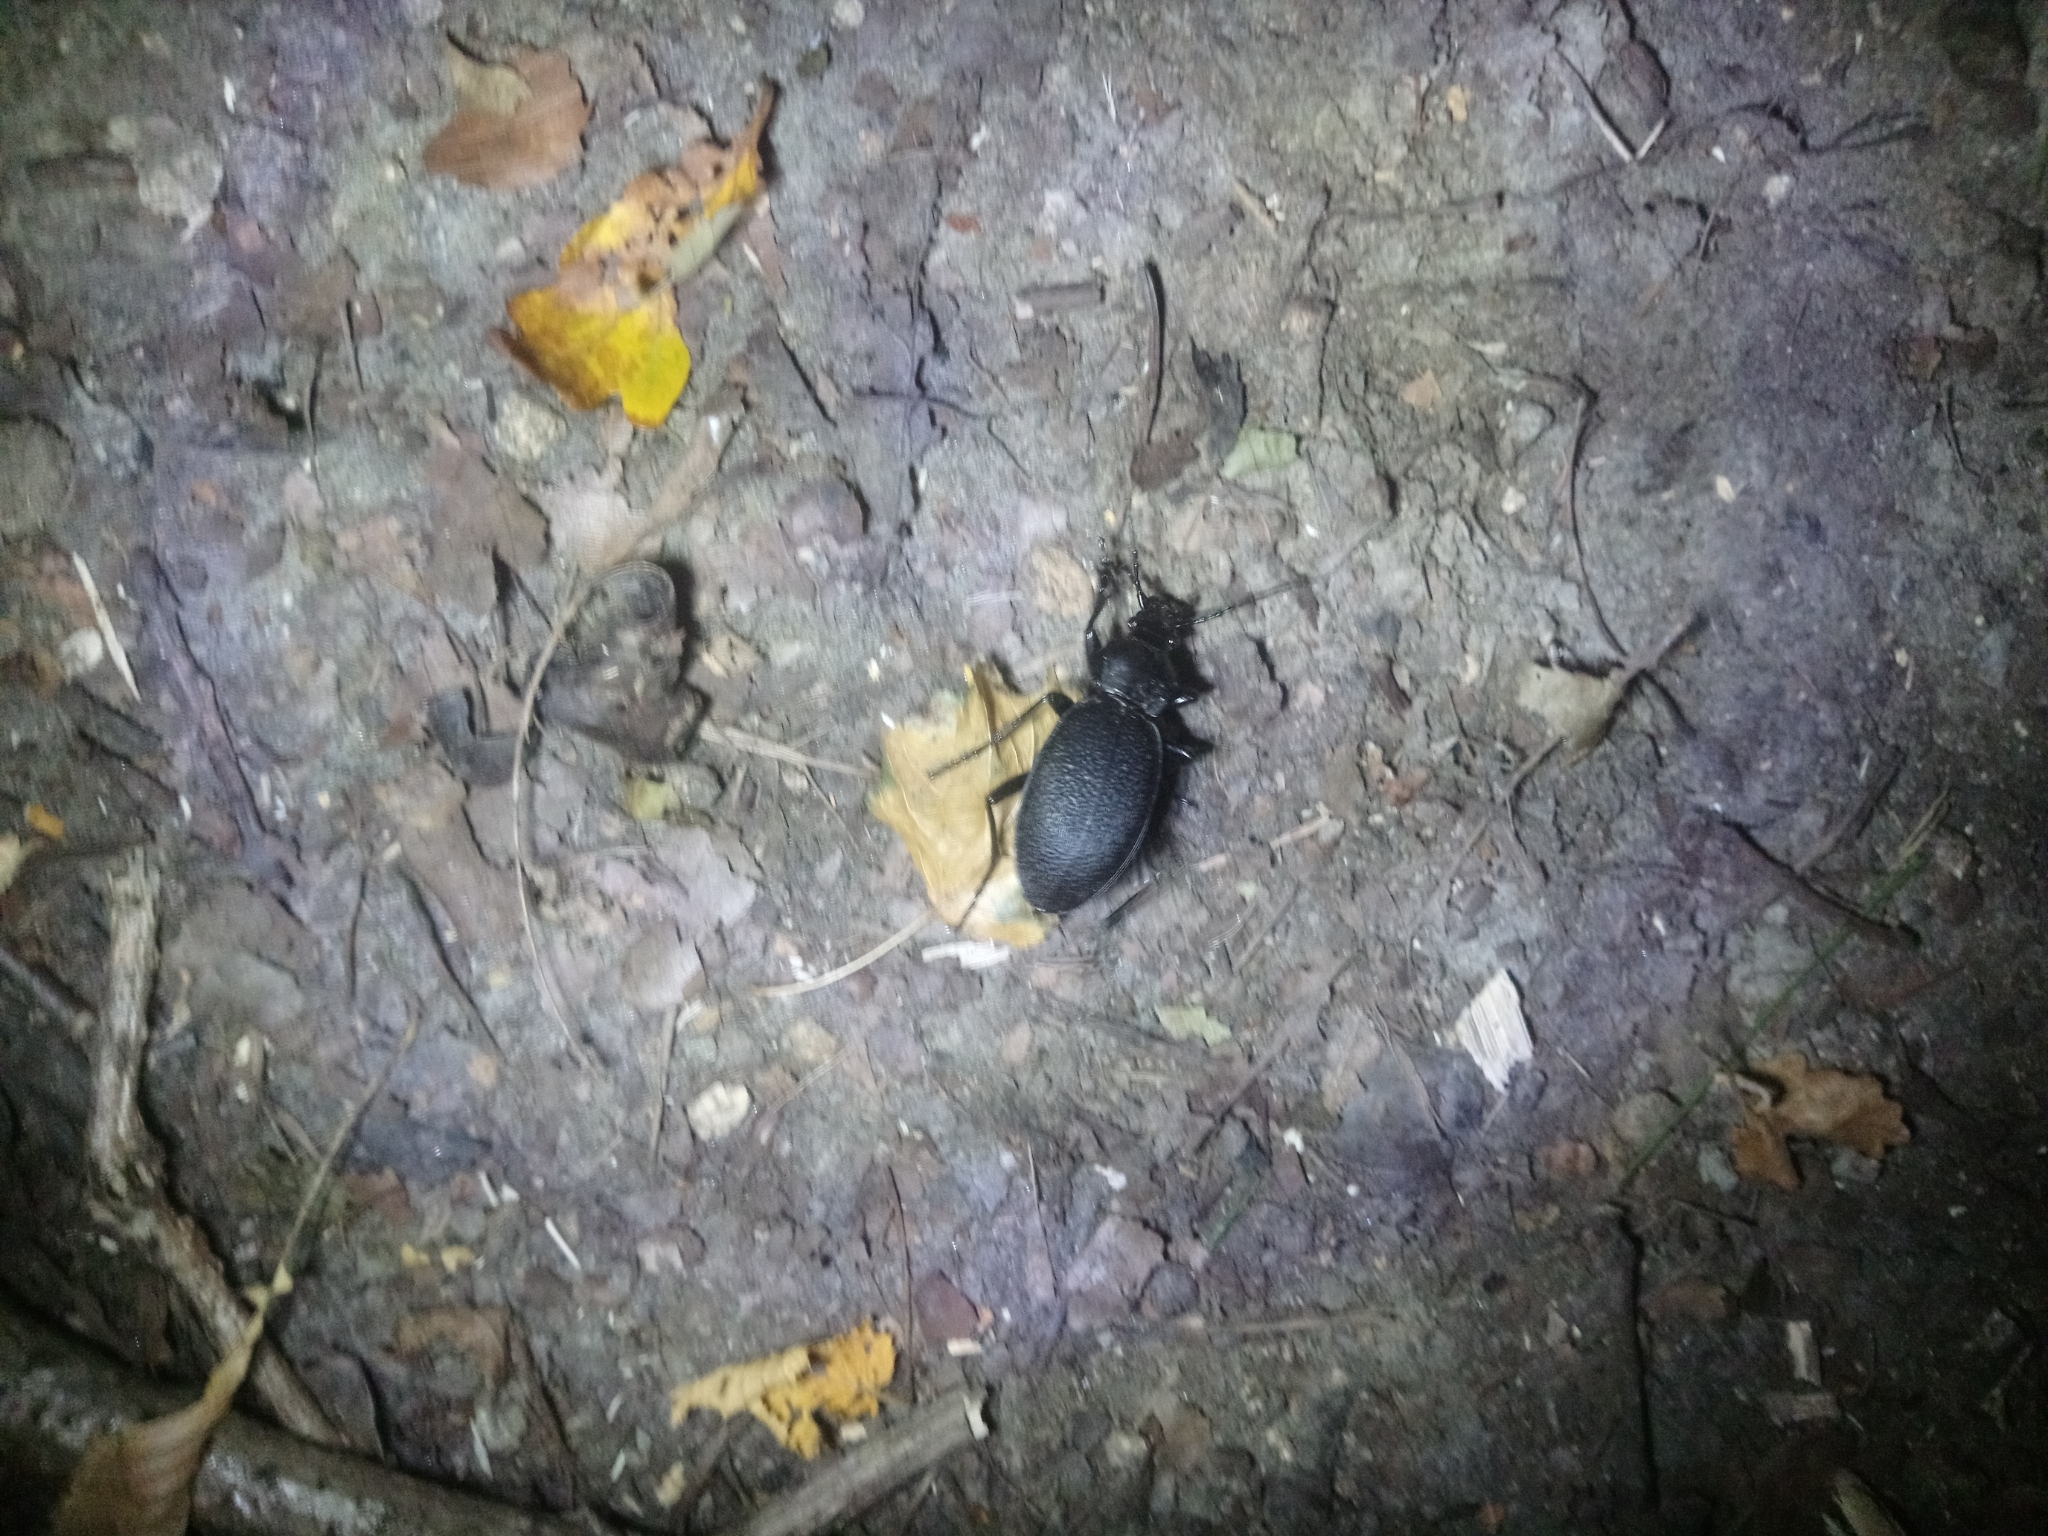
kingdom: Animalia
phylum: Arthropoda
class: Insecta
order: Coleoptera
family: Carabidae
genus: Carabus
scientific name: Carabus coriaceus
